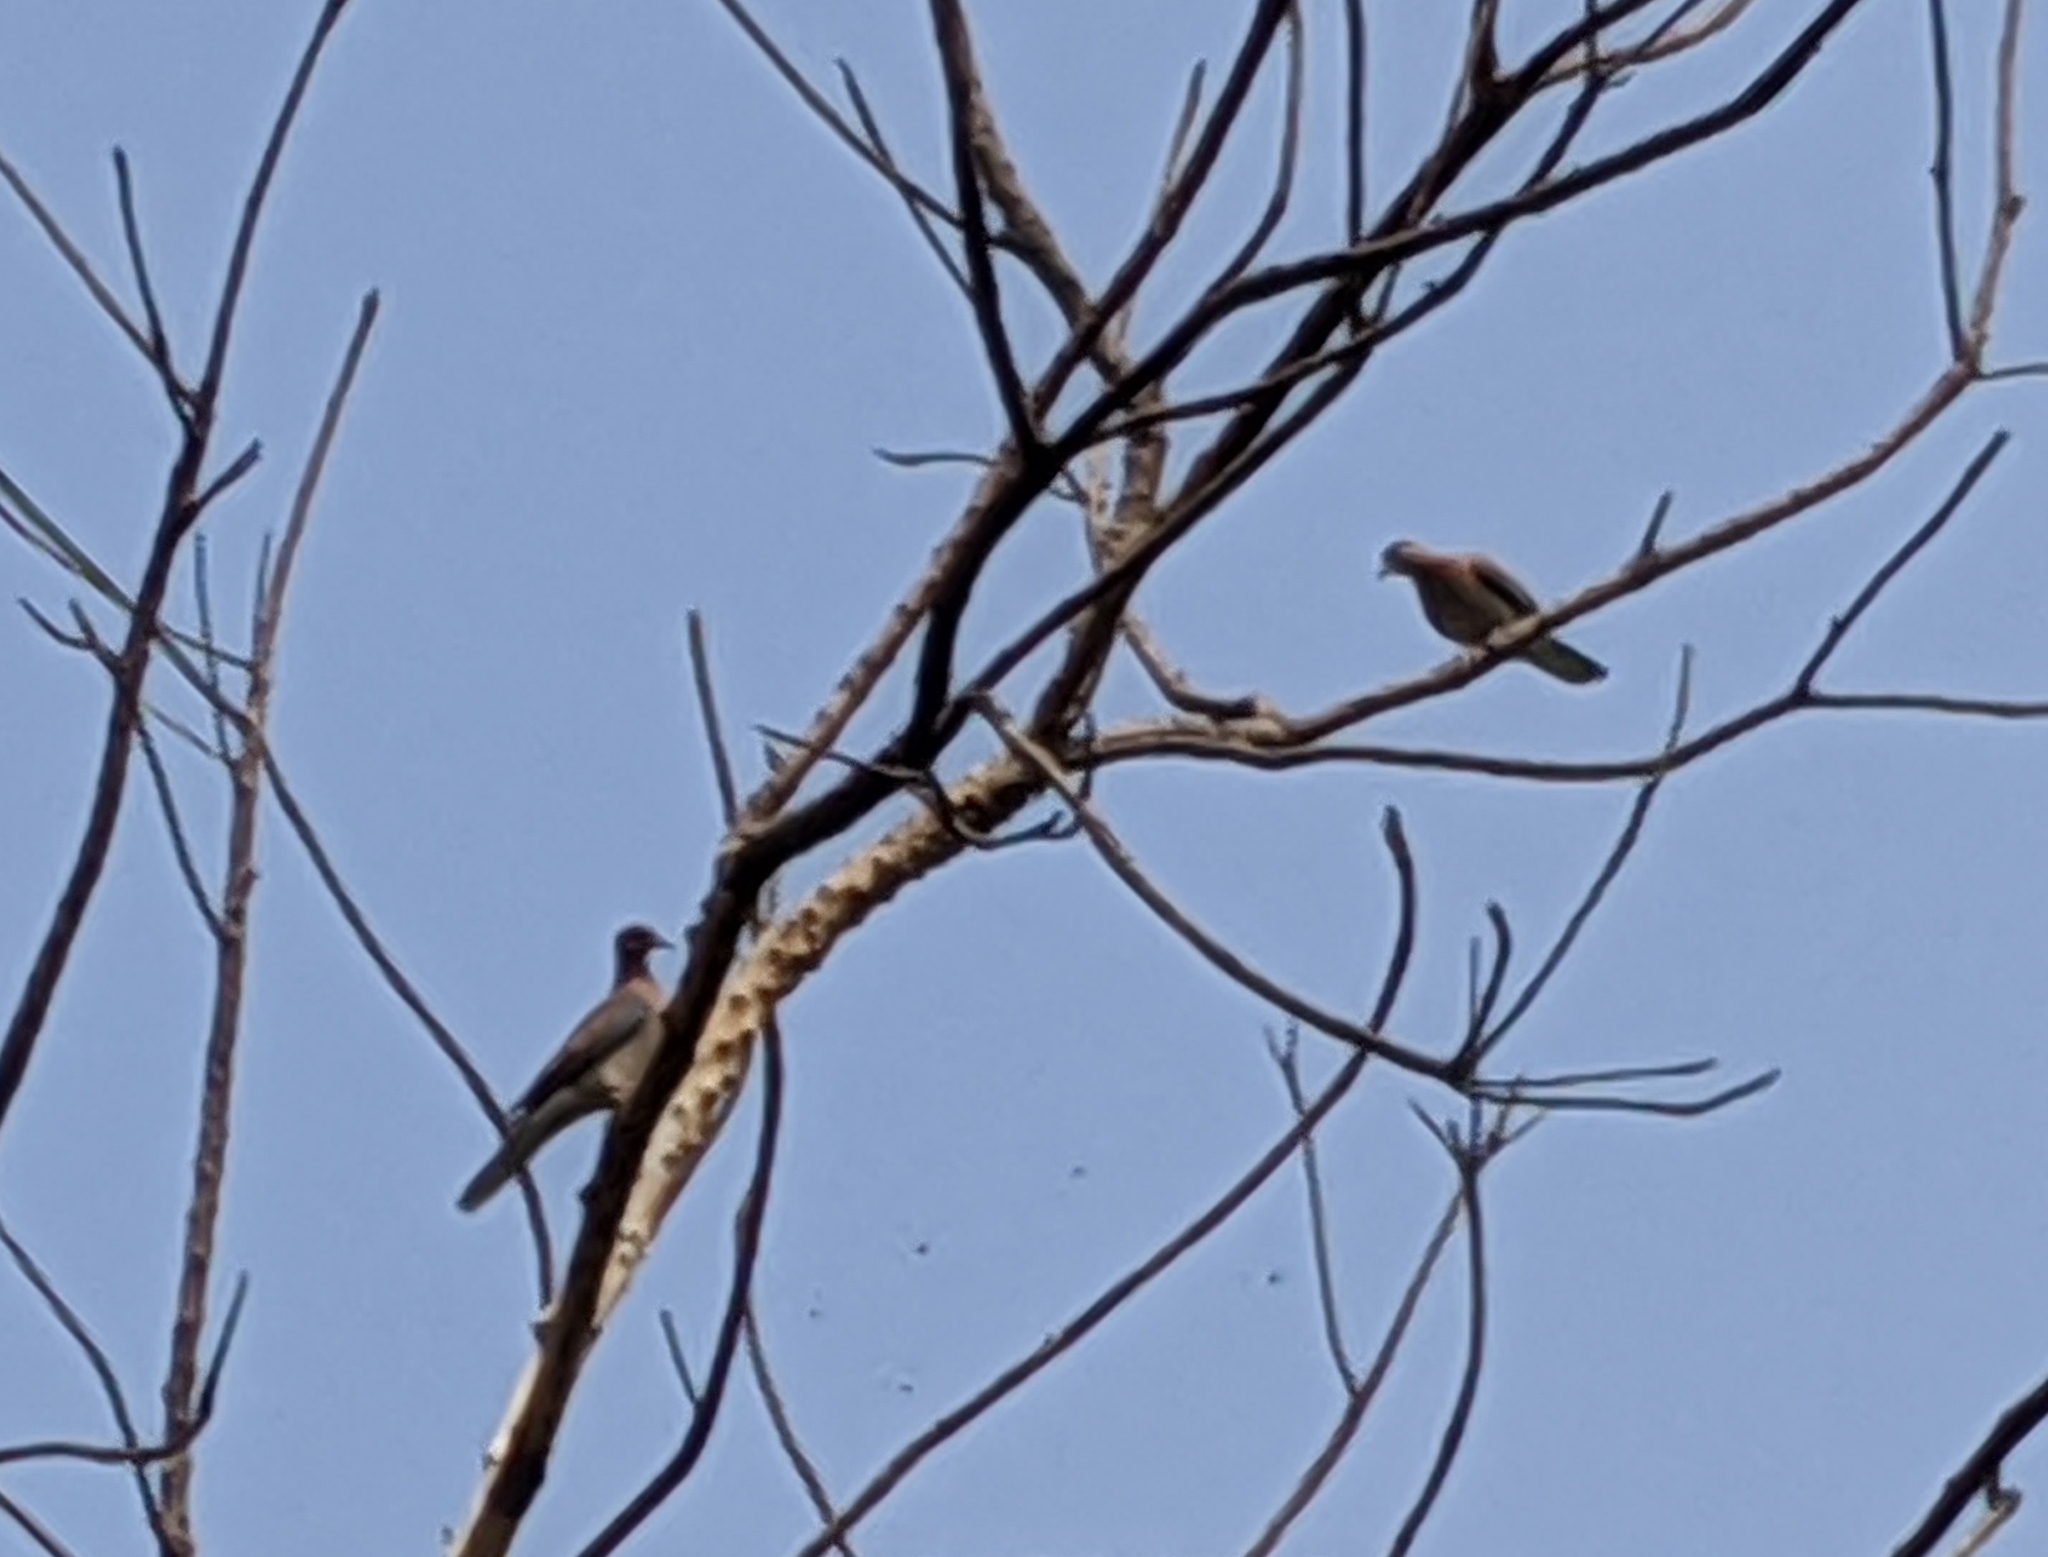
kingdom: Animalia
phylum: Chordata
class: Aves
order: Columbiformes
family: Columbidae
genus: Spilopelia
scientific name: Spilopelia senegalensis
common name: Laughing dove
